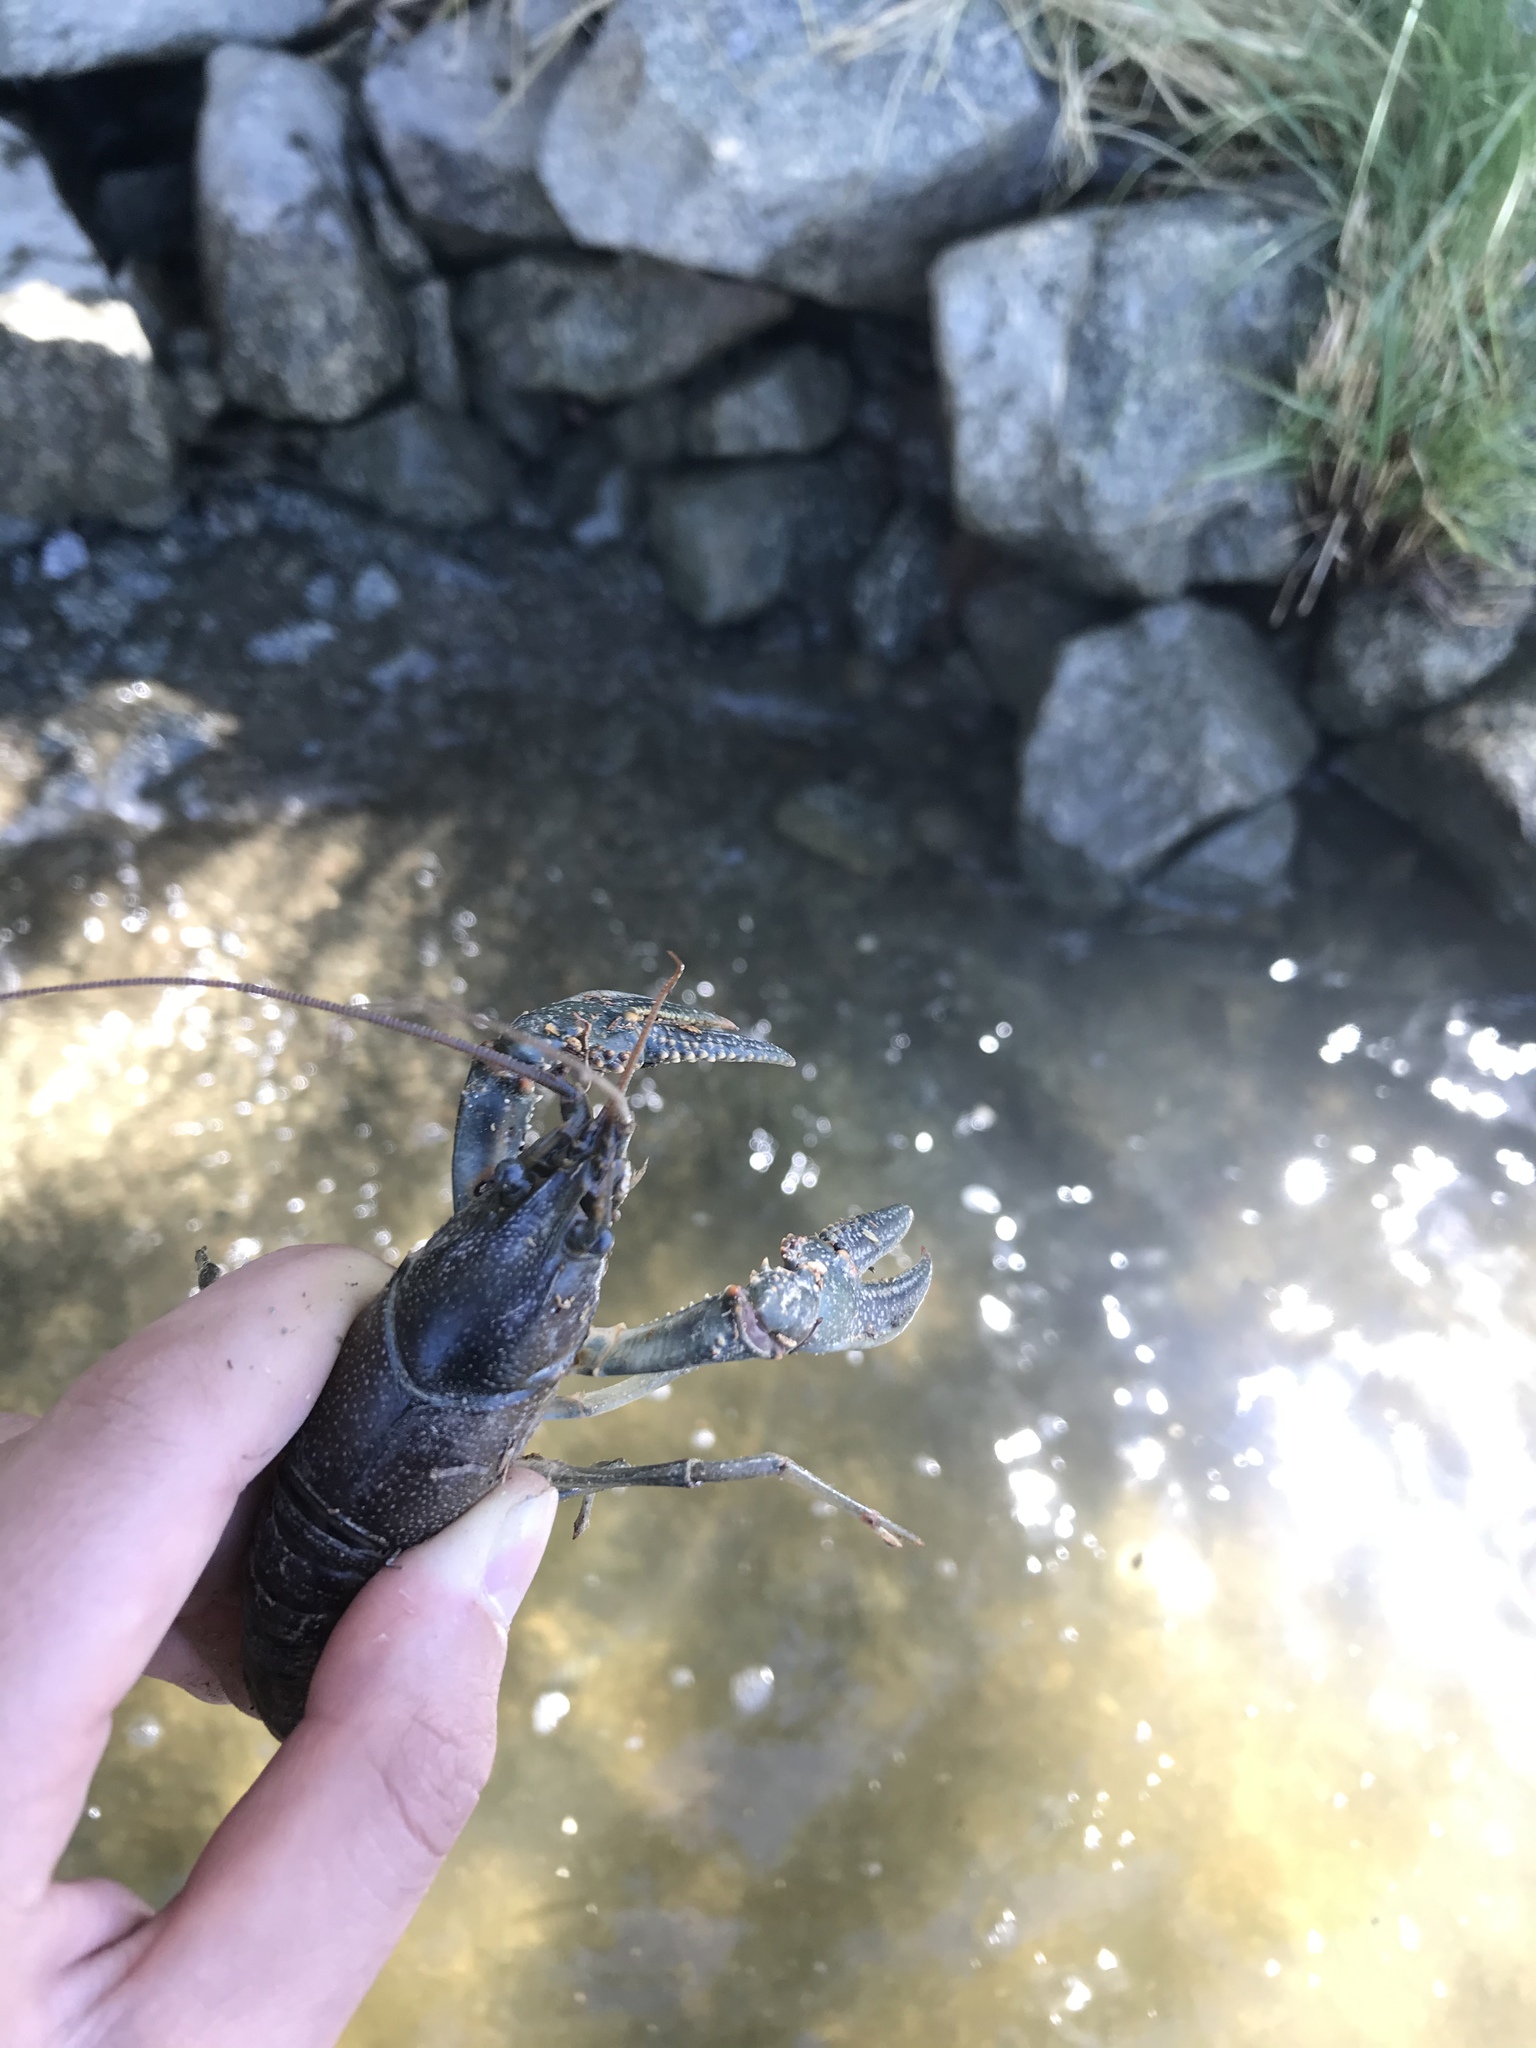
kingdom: Animalia
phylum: Arthropoda
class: Malacostraca
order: Decapoda
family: Cambaridae
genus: Faxonius
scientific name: Faxonius virilis
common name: Virile crayfish
